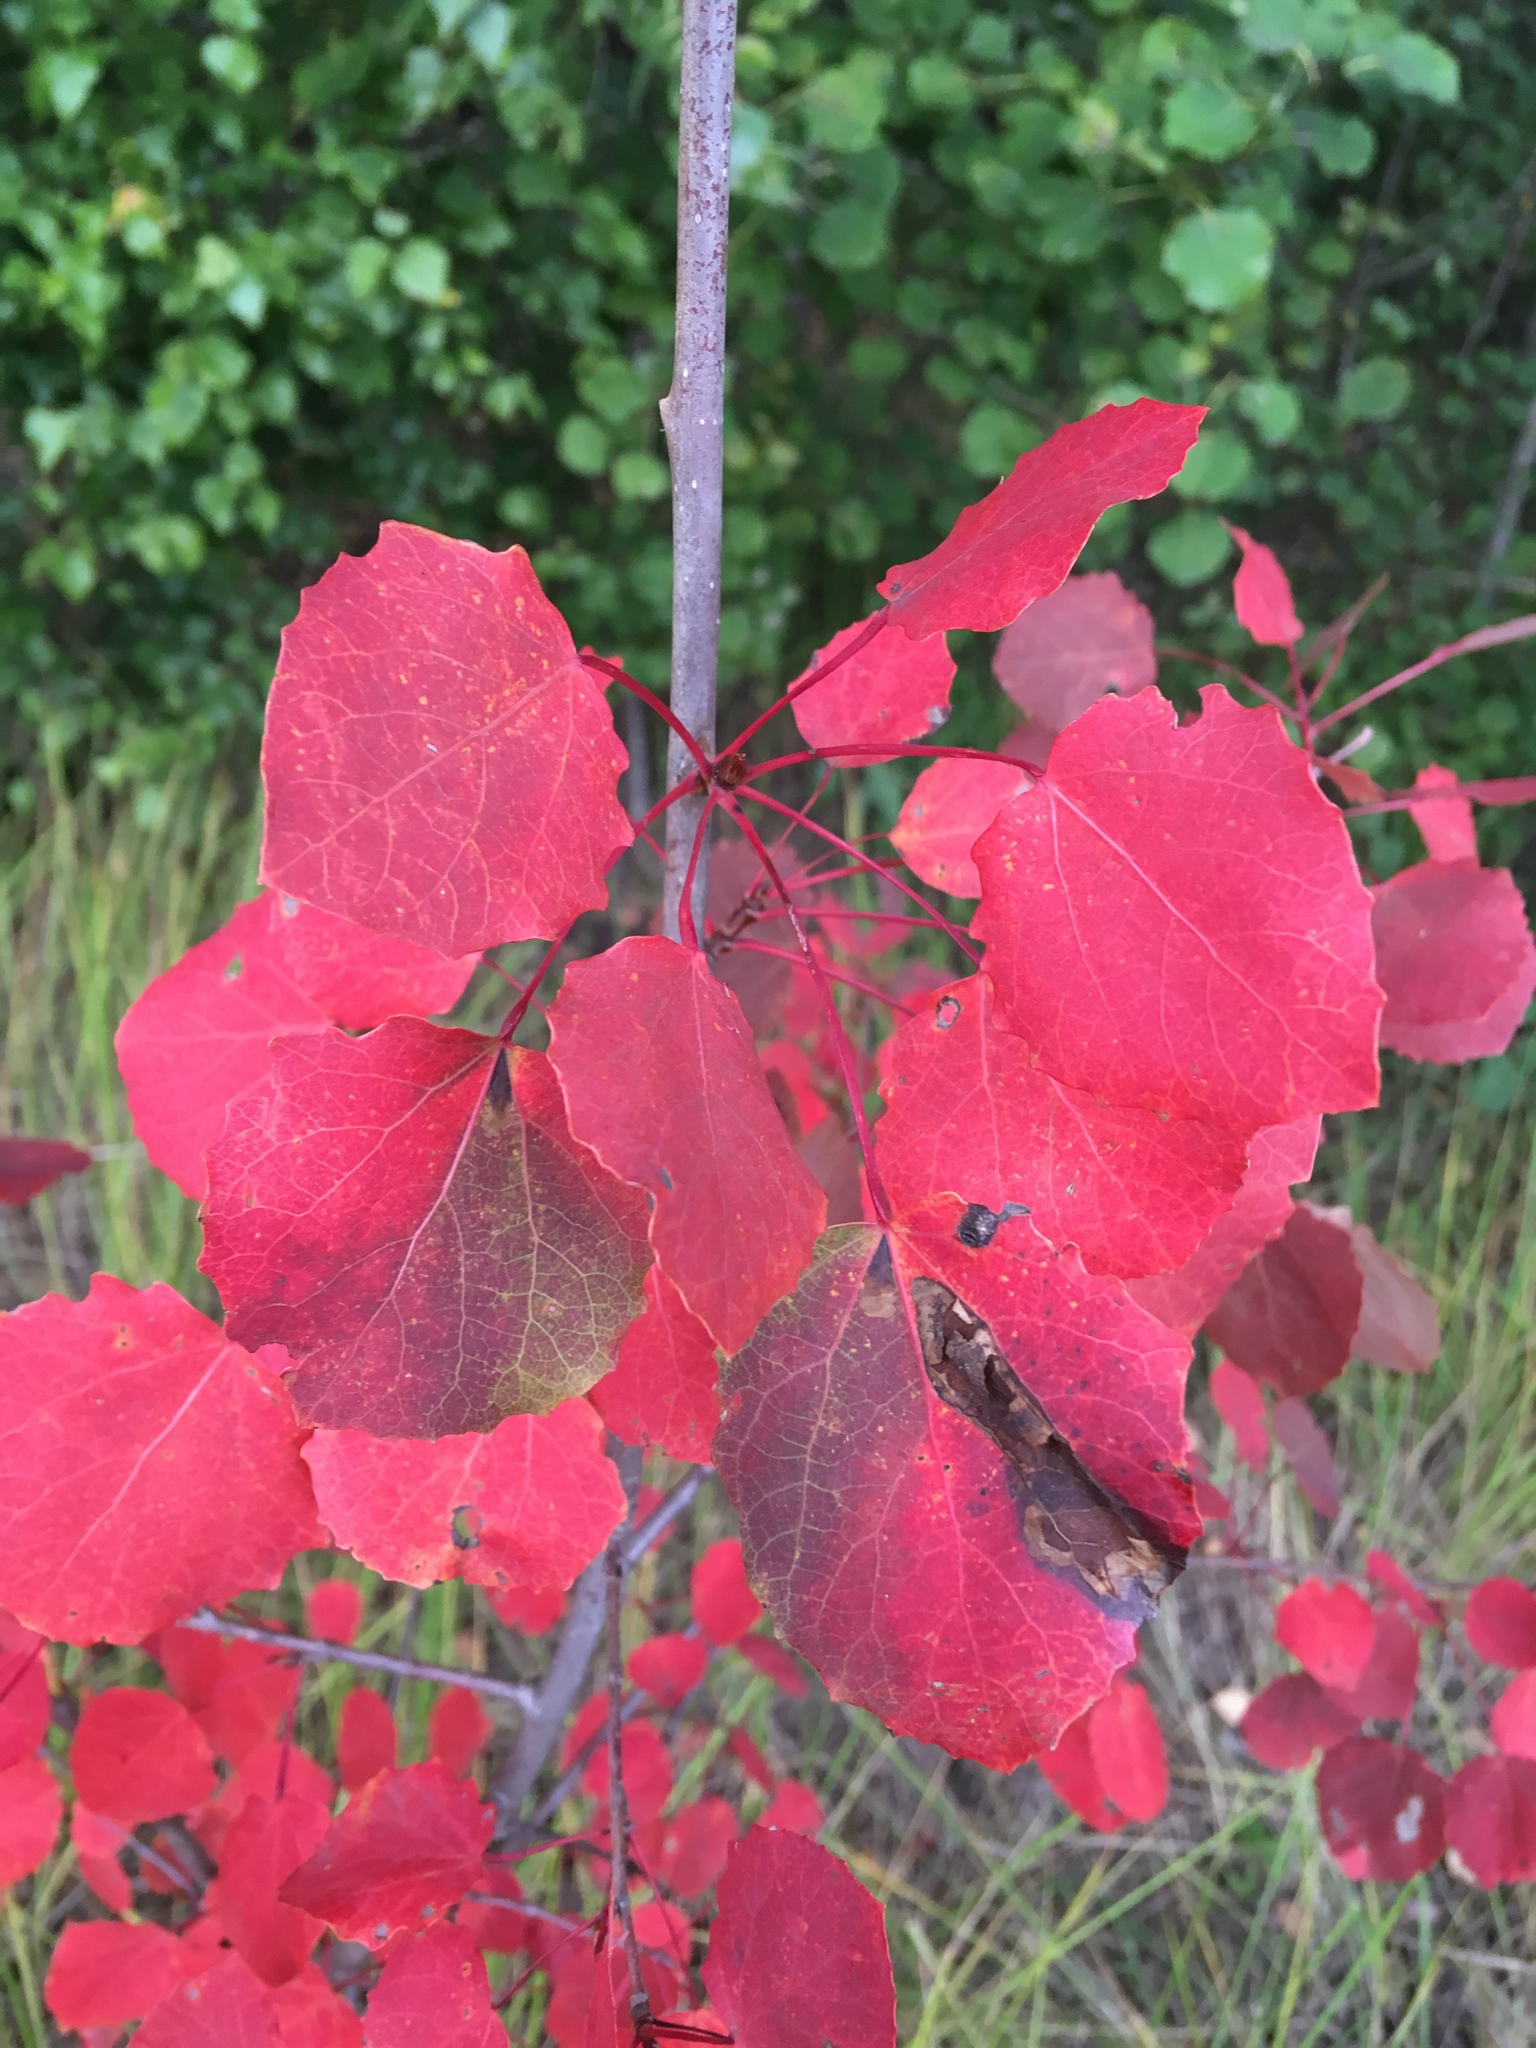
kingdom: Plantae
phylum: Tracheophyta
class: Magnoliopsida
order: Malpighiales
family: Salicaceae
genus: Populus
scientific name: Populus tremula
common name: European aspen
